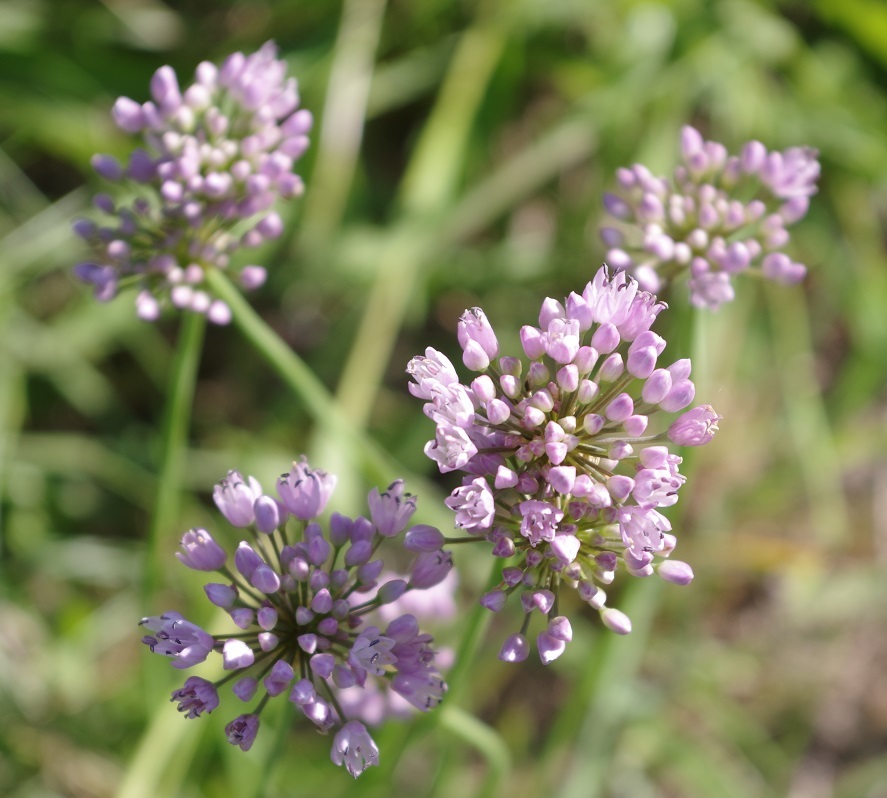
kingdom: Plantae
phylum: Tracheophyta
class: Liliopsida
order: Asparagales
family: Amaryllidaceae
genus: Allium
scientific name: Allium angulosum
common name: Mouse garlic
